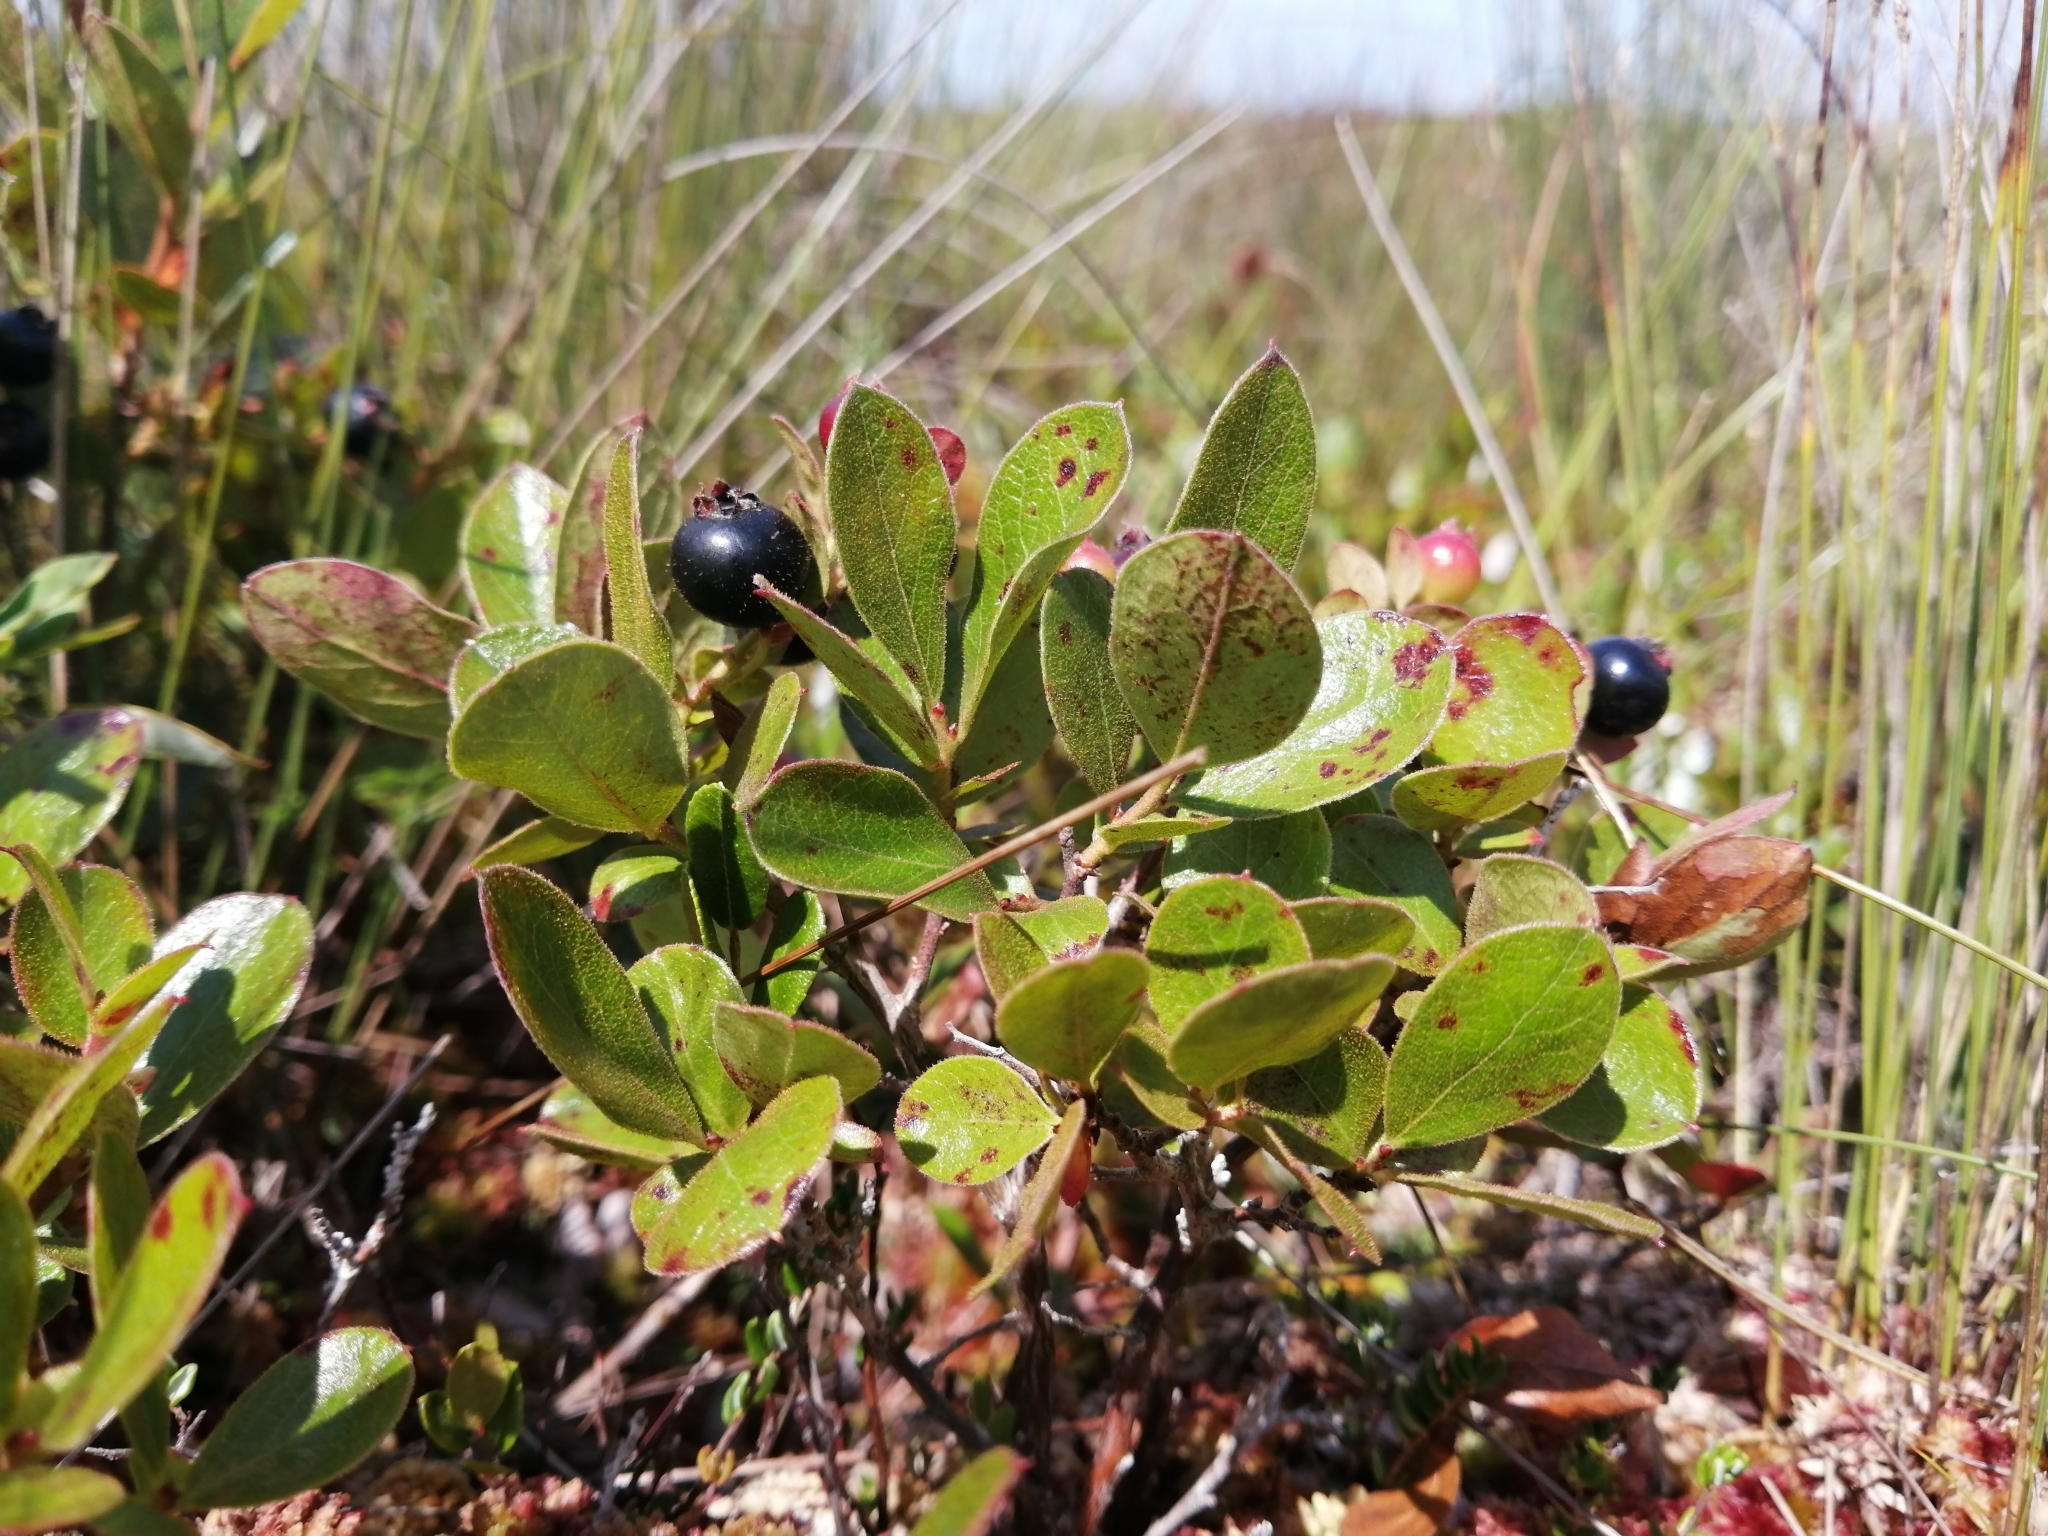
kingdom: Plantae
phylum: Tracheophyta
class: Magnoliopsida
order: Ericales
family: Ericaceae
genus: Gaylussacia
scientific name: Gaylussacia bigeloviana
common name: Bog huckleberry
